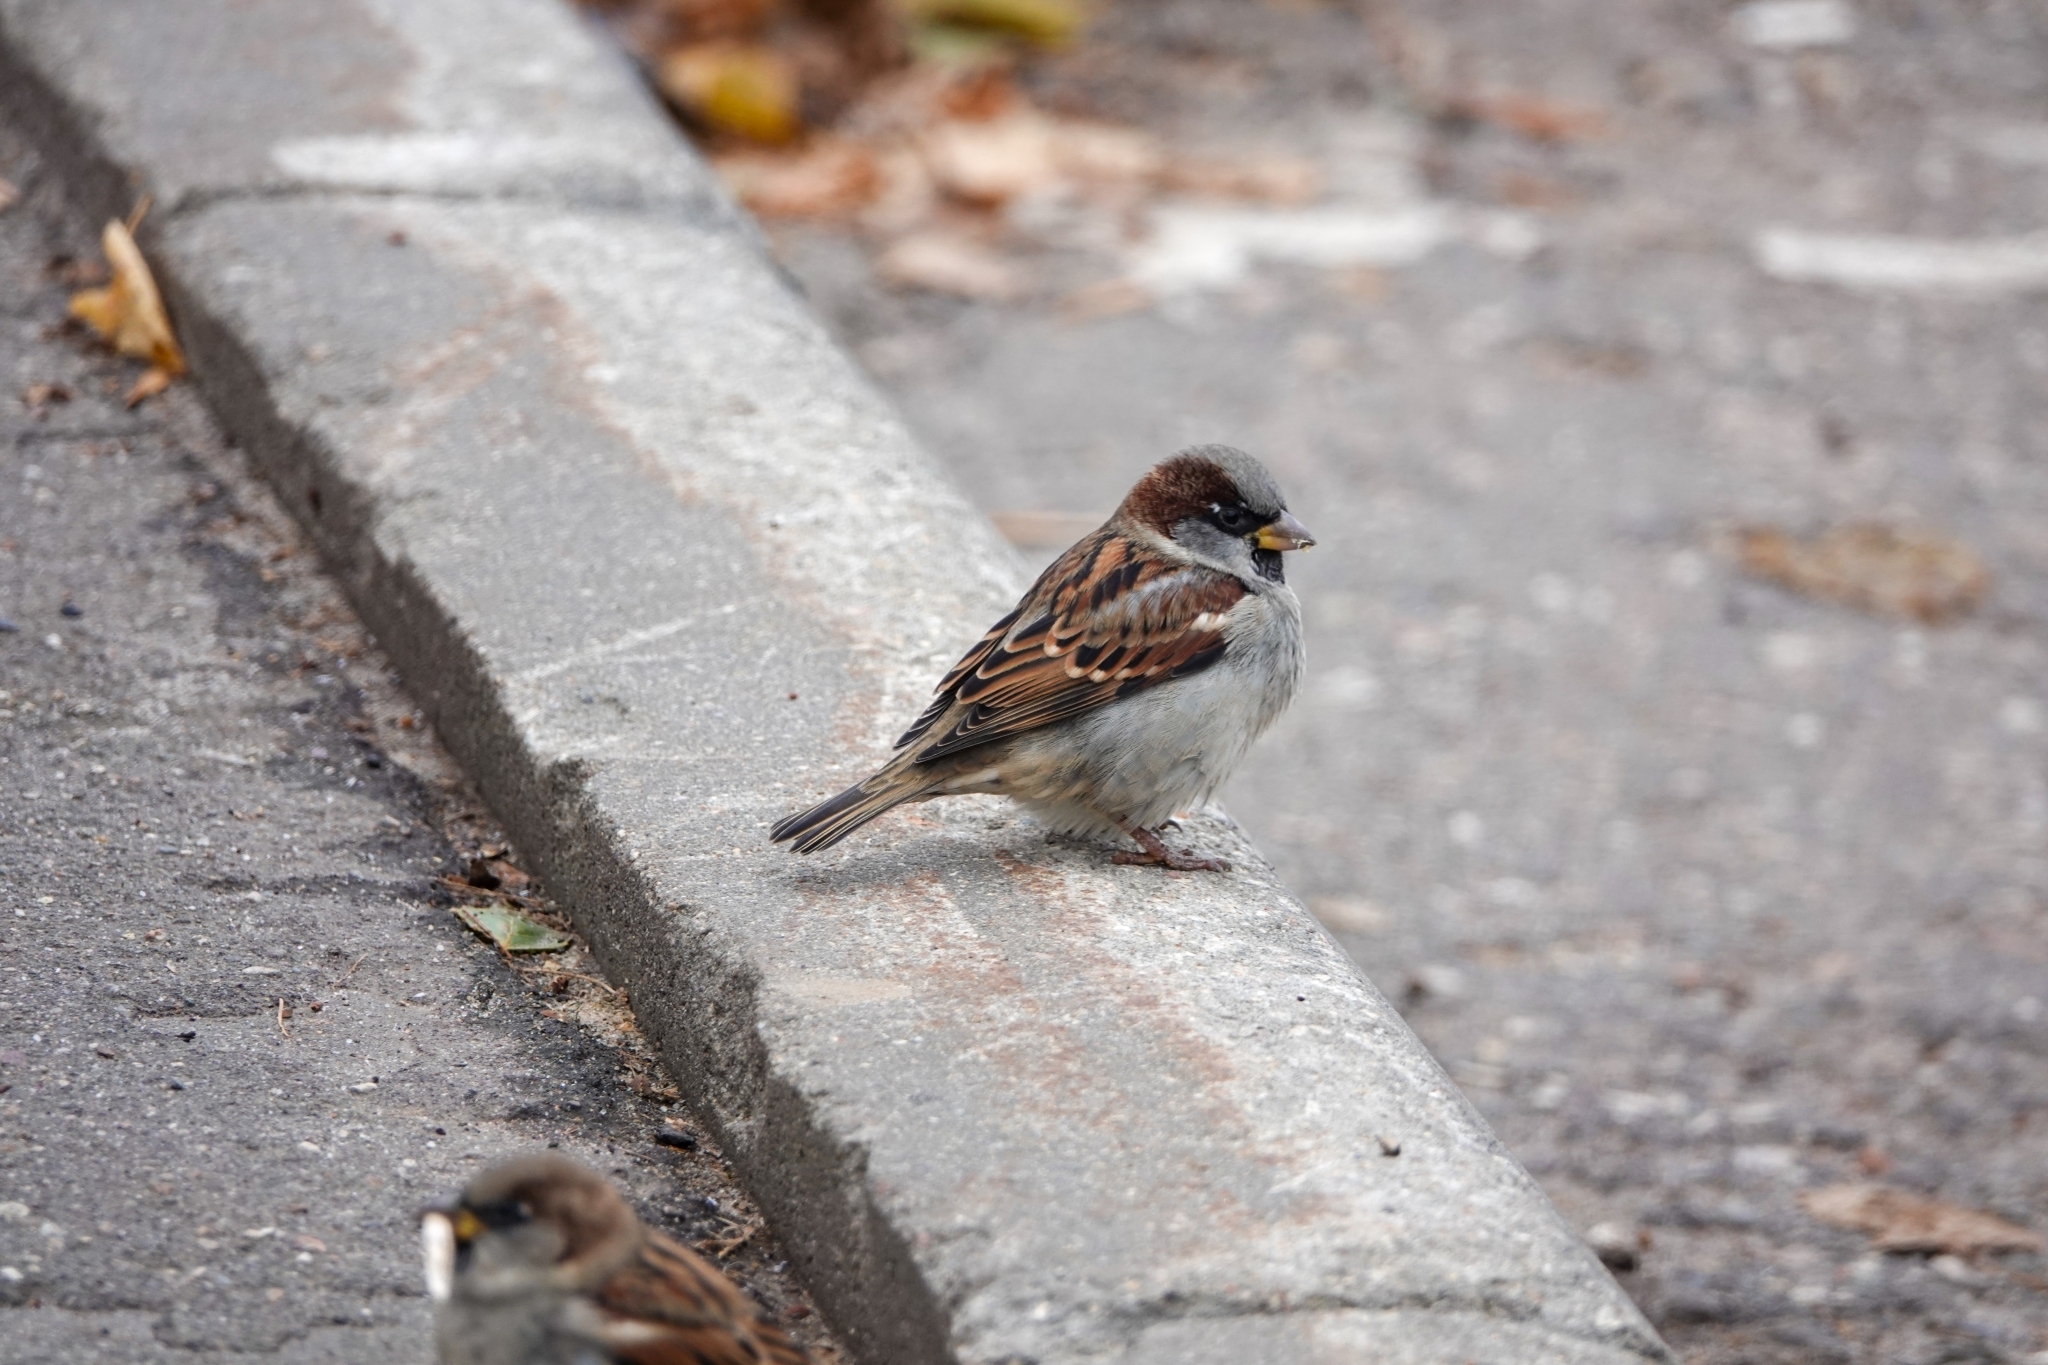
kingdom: Animalia
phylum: Chordata
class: Aves
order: Passeriformes
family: Passeridae
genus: Passer
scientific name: Passer domesticus
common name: House sparrow
